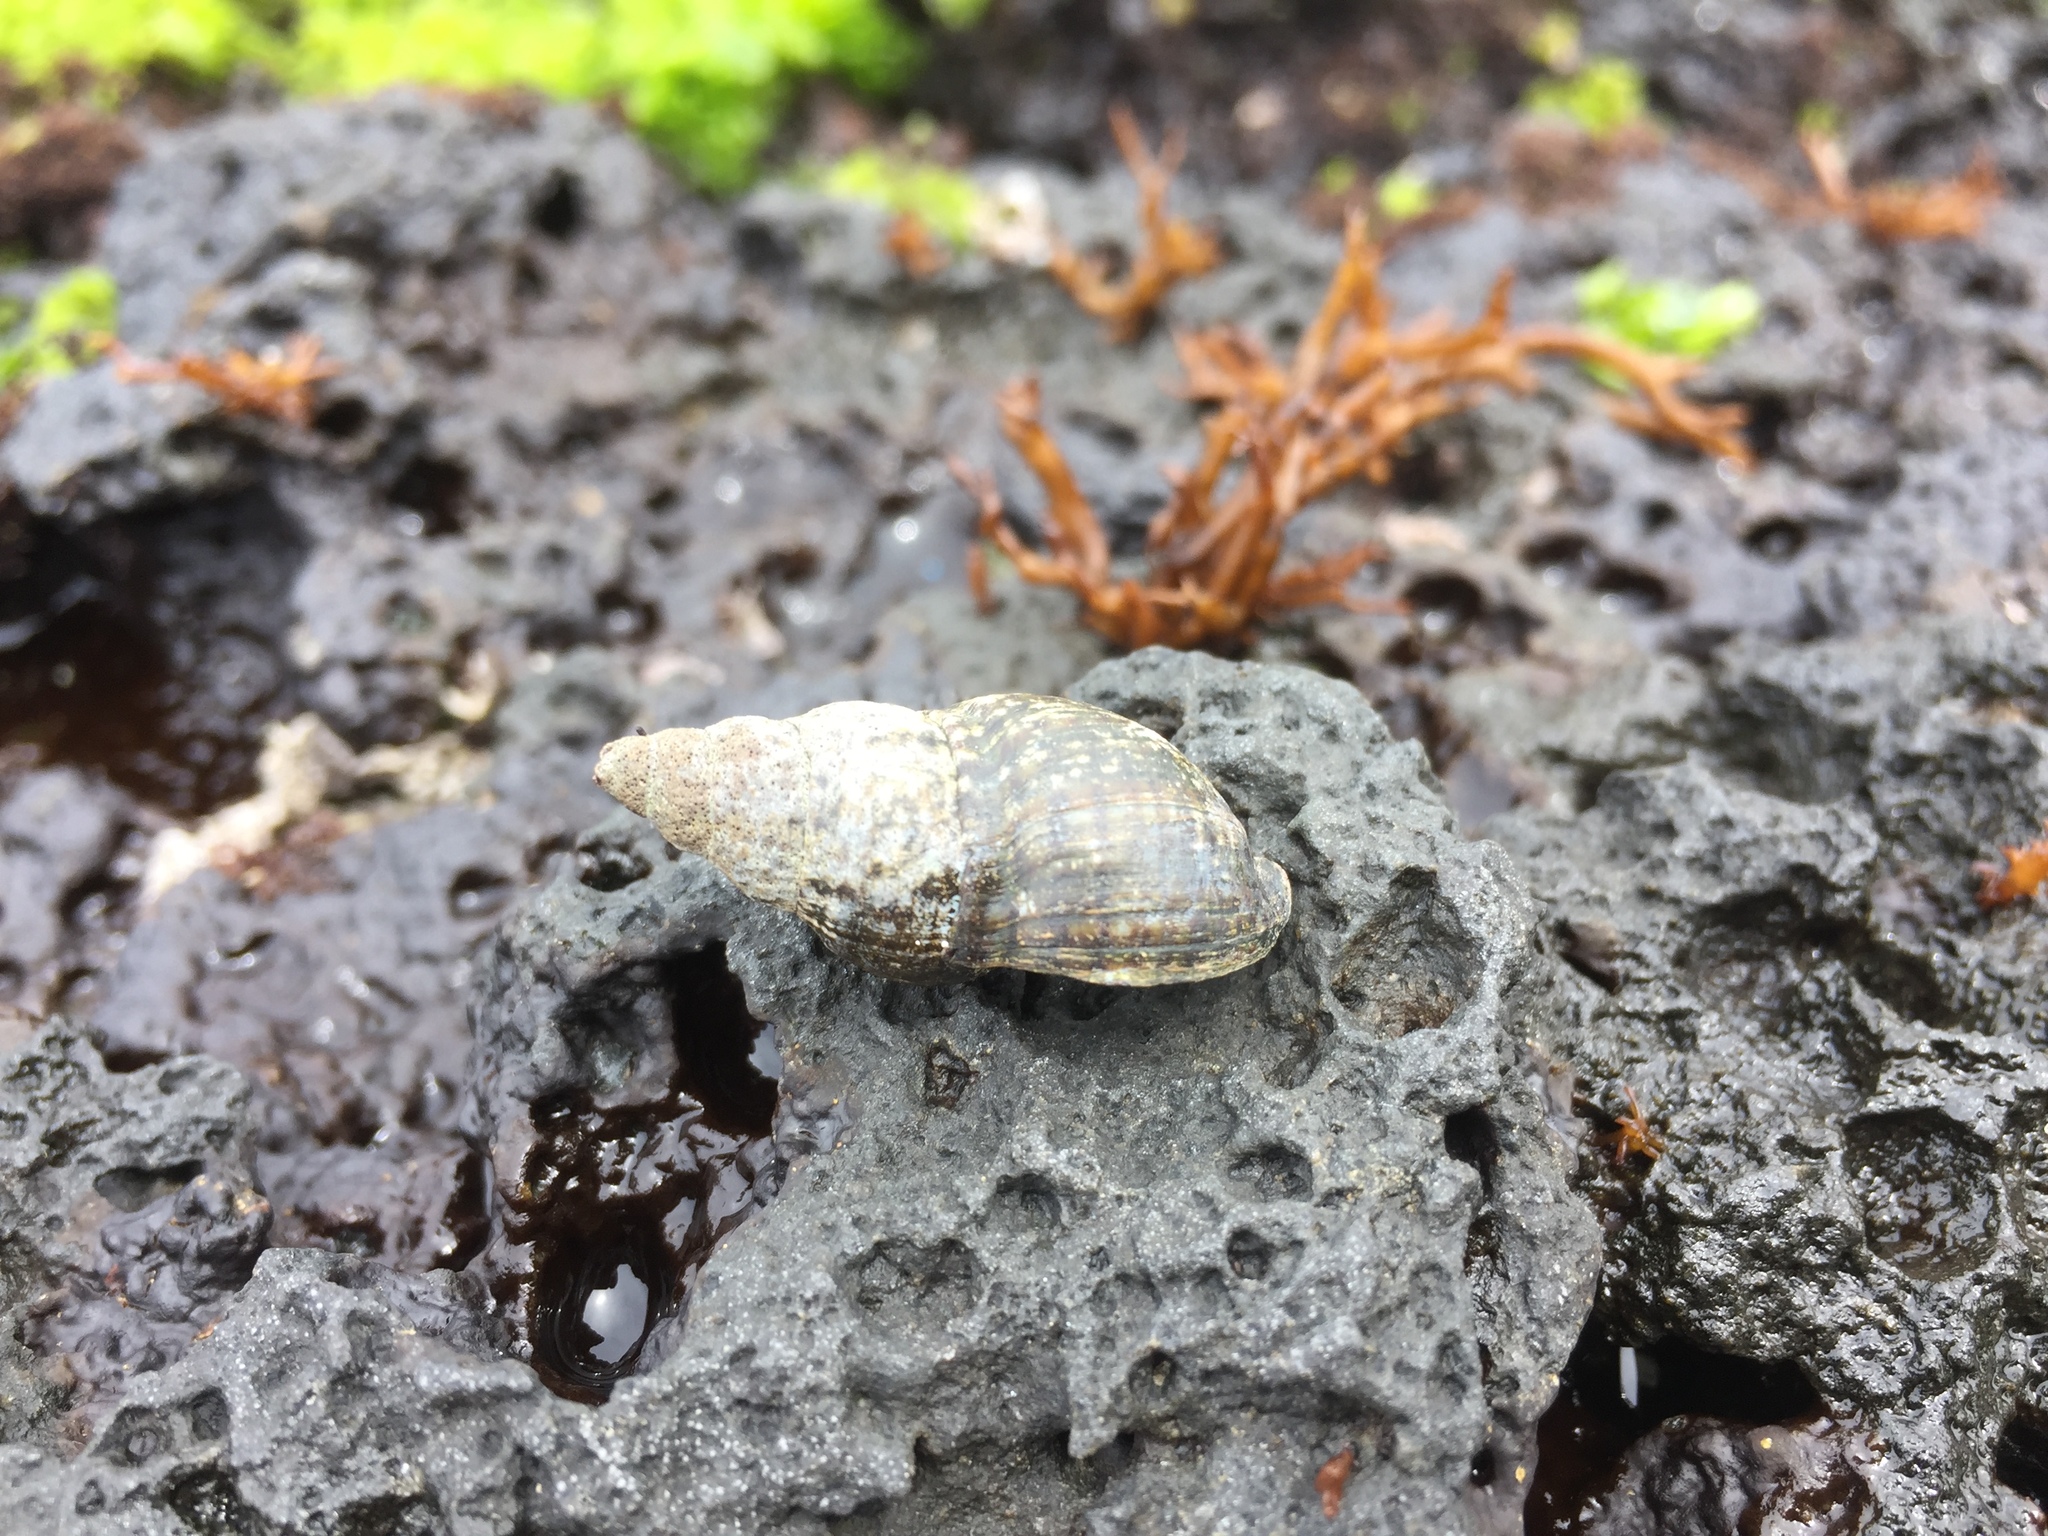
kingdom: Animalia
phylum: Mollusca
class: Gastropoda
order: Neogastropoda
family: Buccinidae
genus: Japeuthria
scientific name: Japeuthria ferrea
